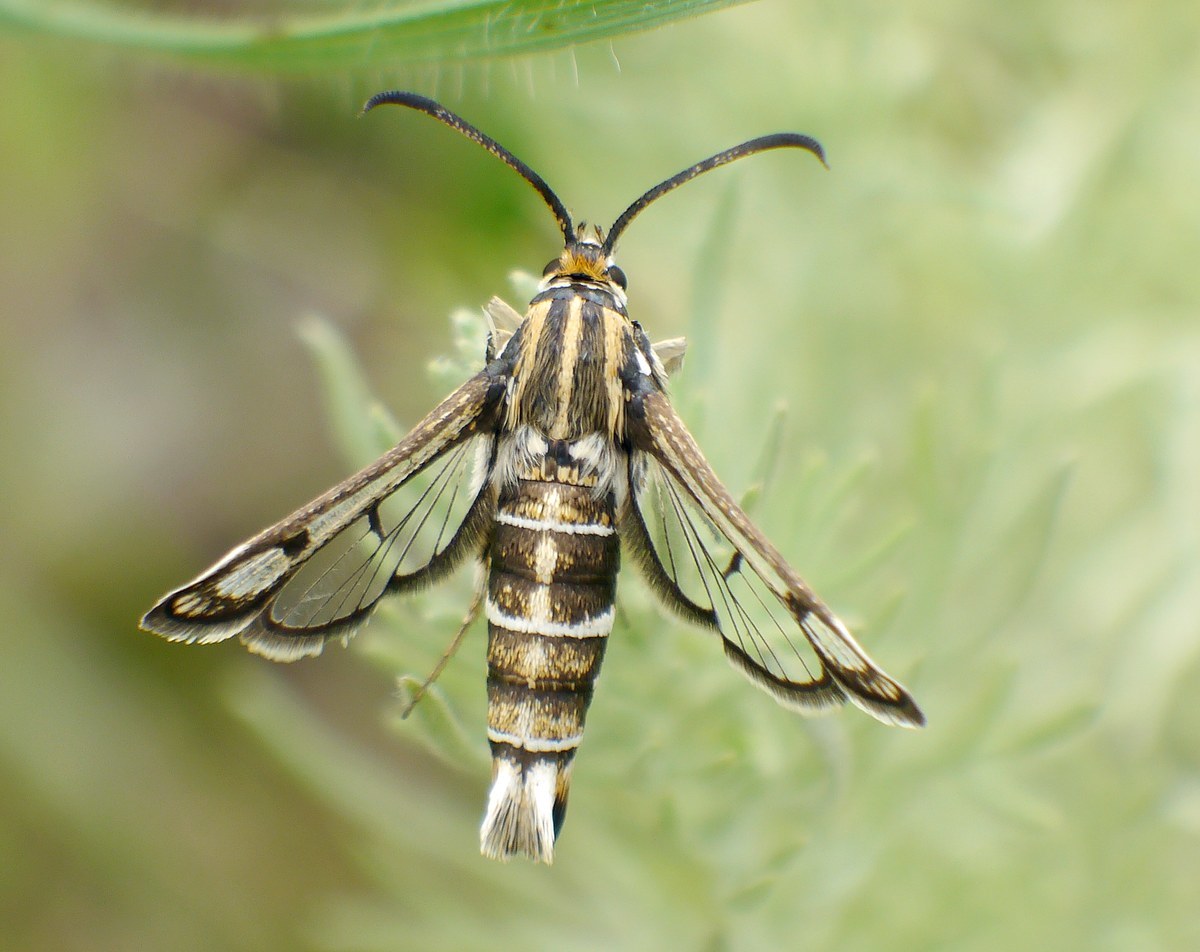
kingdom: Animalia
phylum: Arthropoda
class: Insecta
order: Lepidoptera
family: Sesiidae
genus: Chamaesphecia
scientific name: Chamaesphecia bibioniformis
